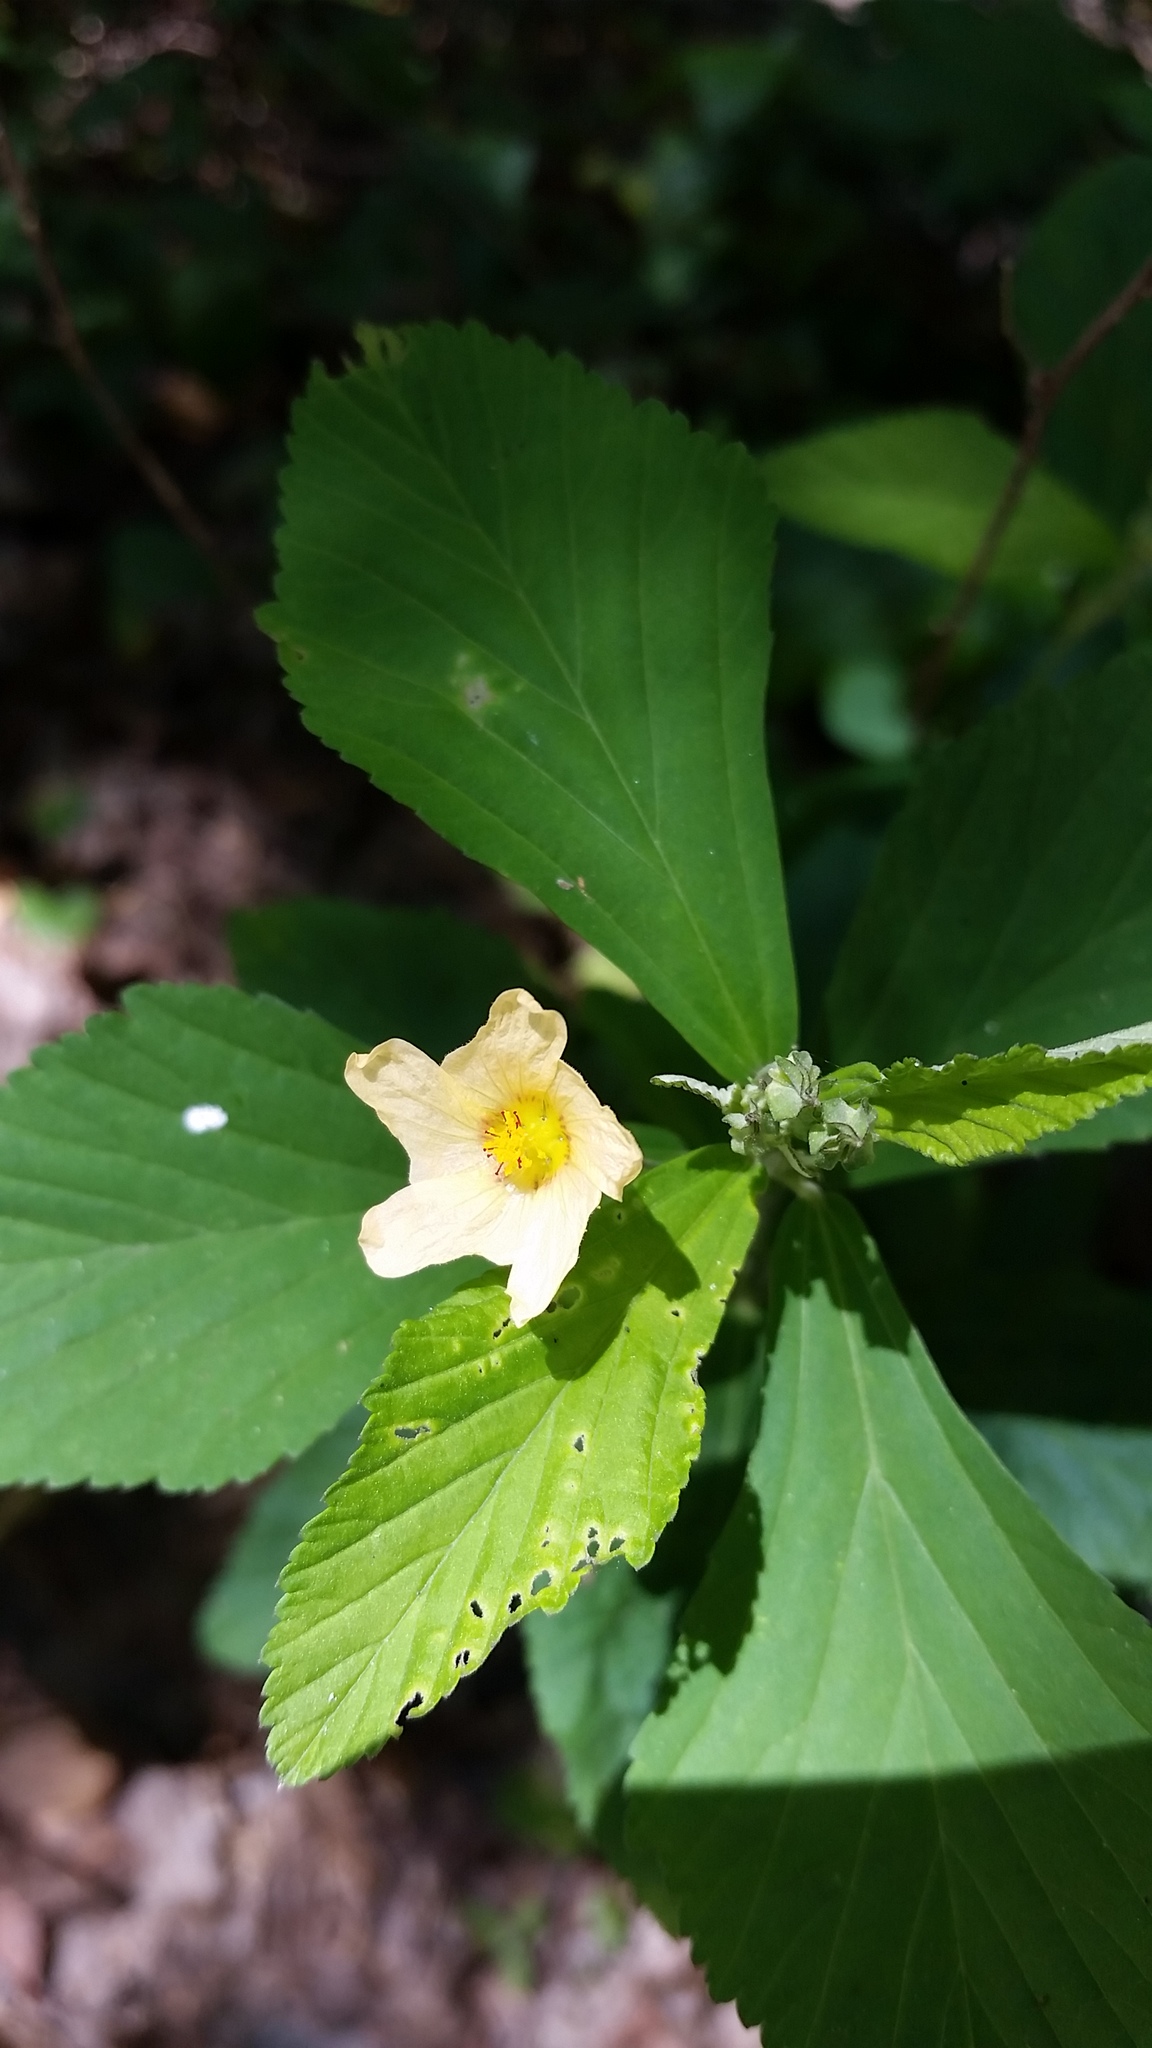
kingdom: Plantae
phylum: Tracheophyta
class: Magnoliopsida
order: Malvales
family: Malvaceae
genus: Sida
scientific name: Sida rhombifolia
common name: Queensland-hemp
